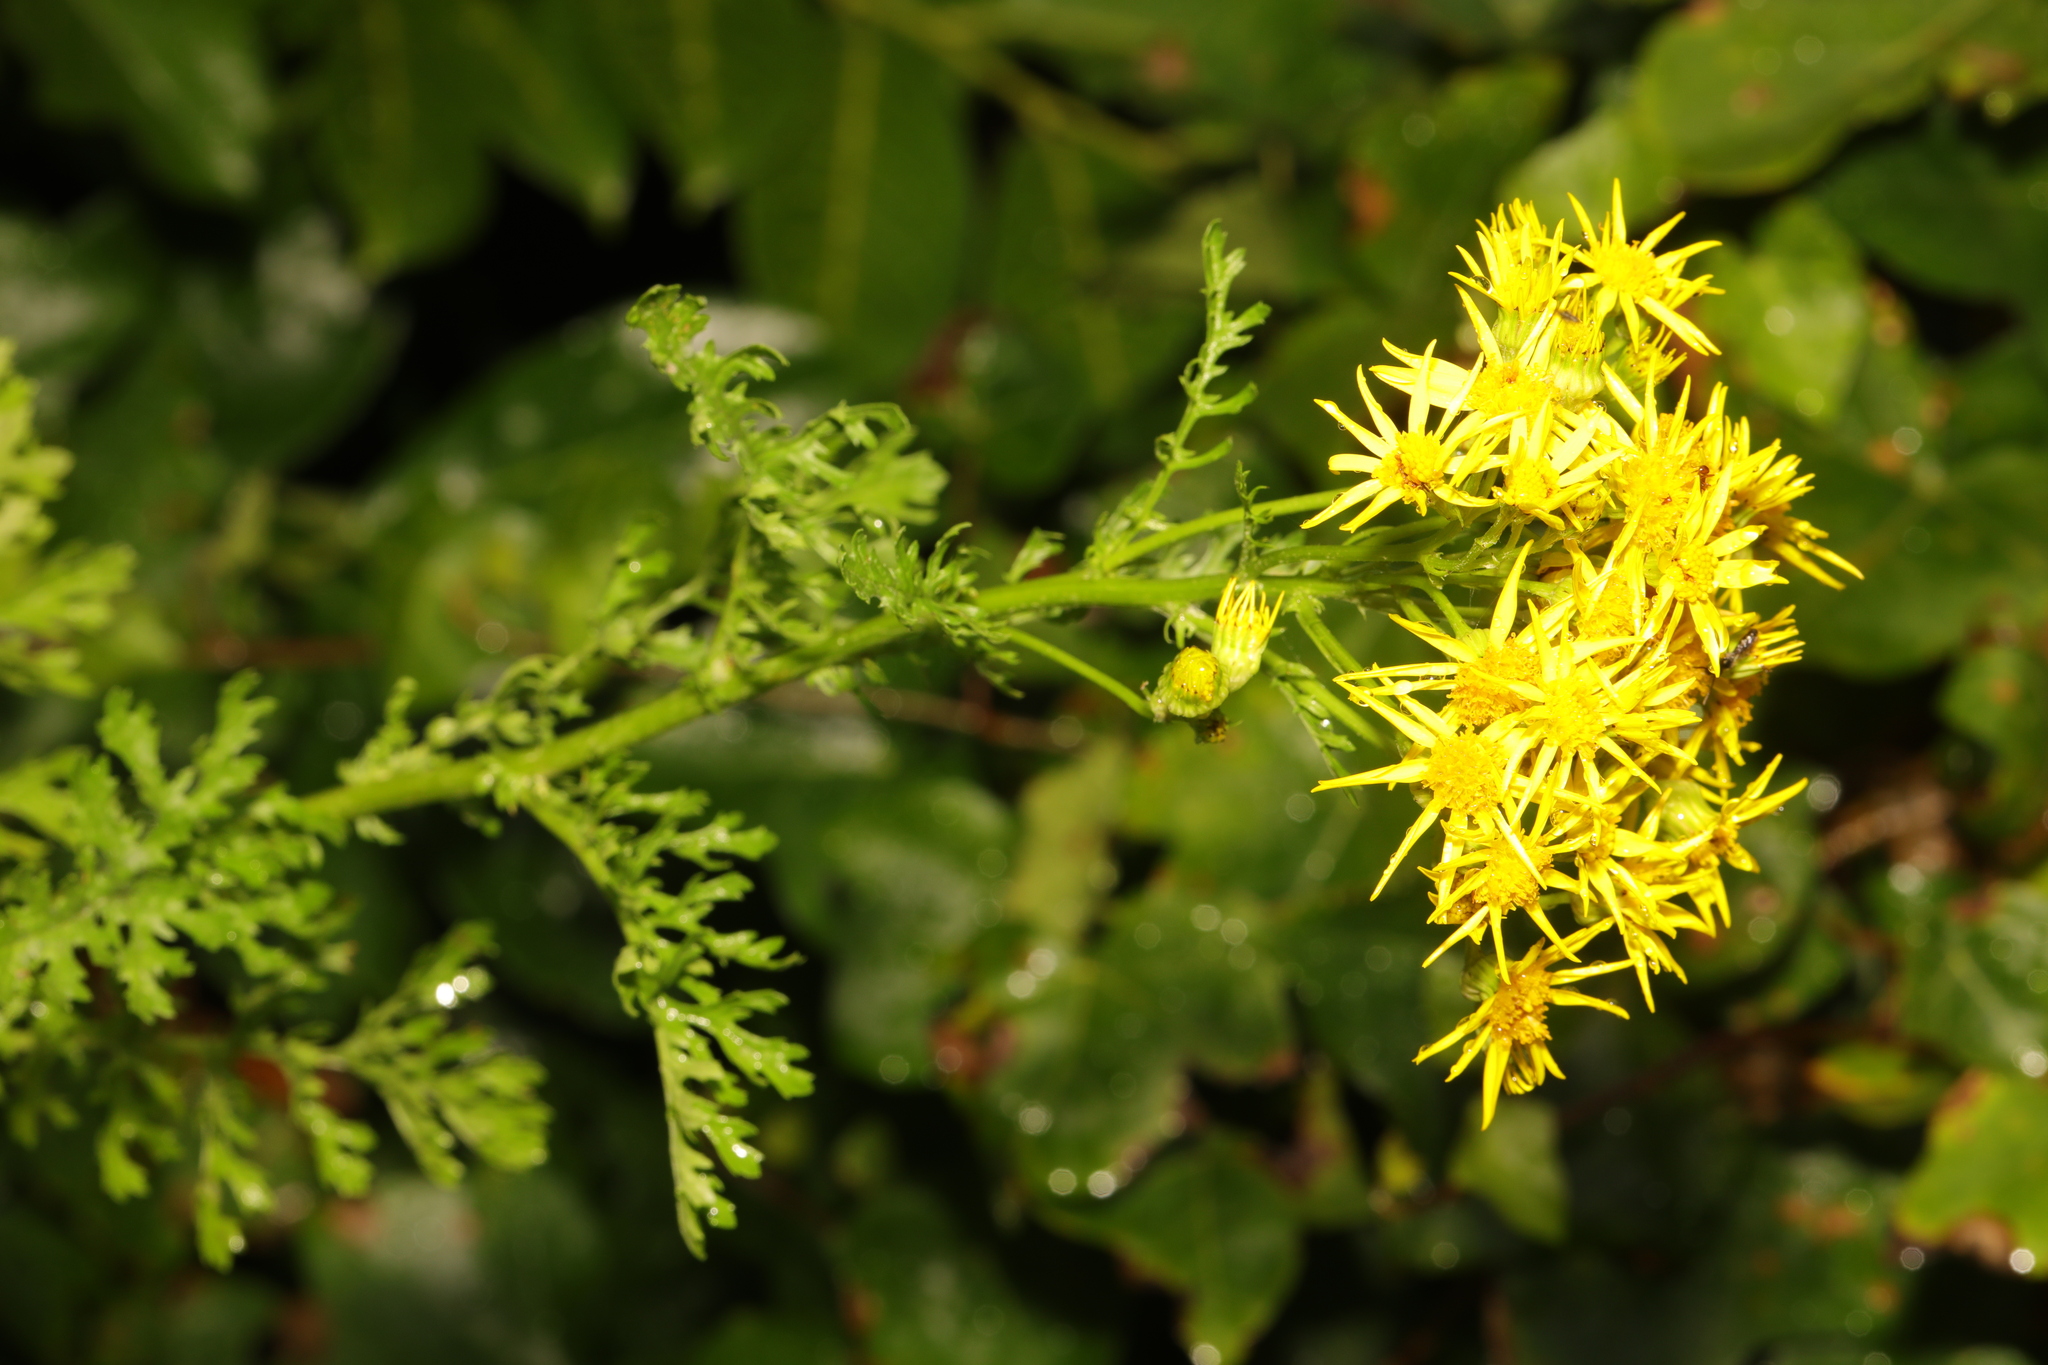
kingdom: Plantae
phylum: Tracheophyta
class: Magnoliopsida
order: Asterales
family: Asteraceae
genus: Jacobaea
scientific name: Jacobaea vulgaris
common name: Stinking willie
